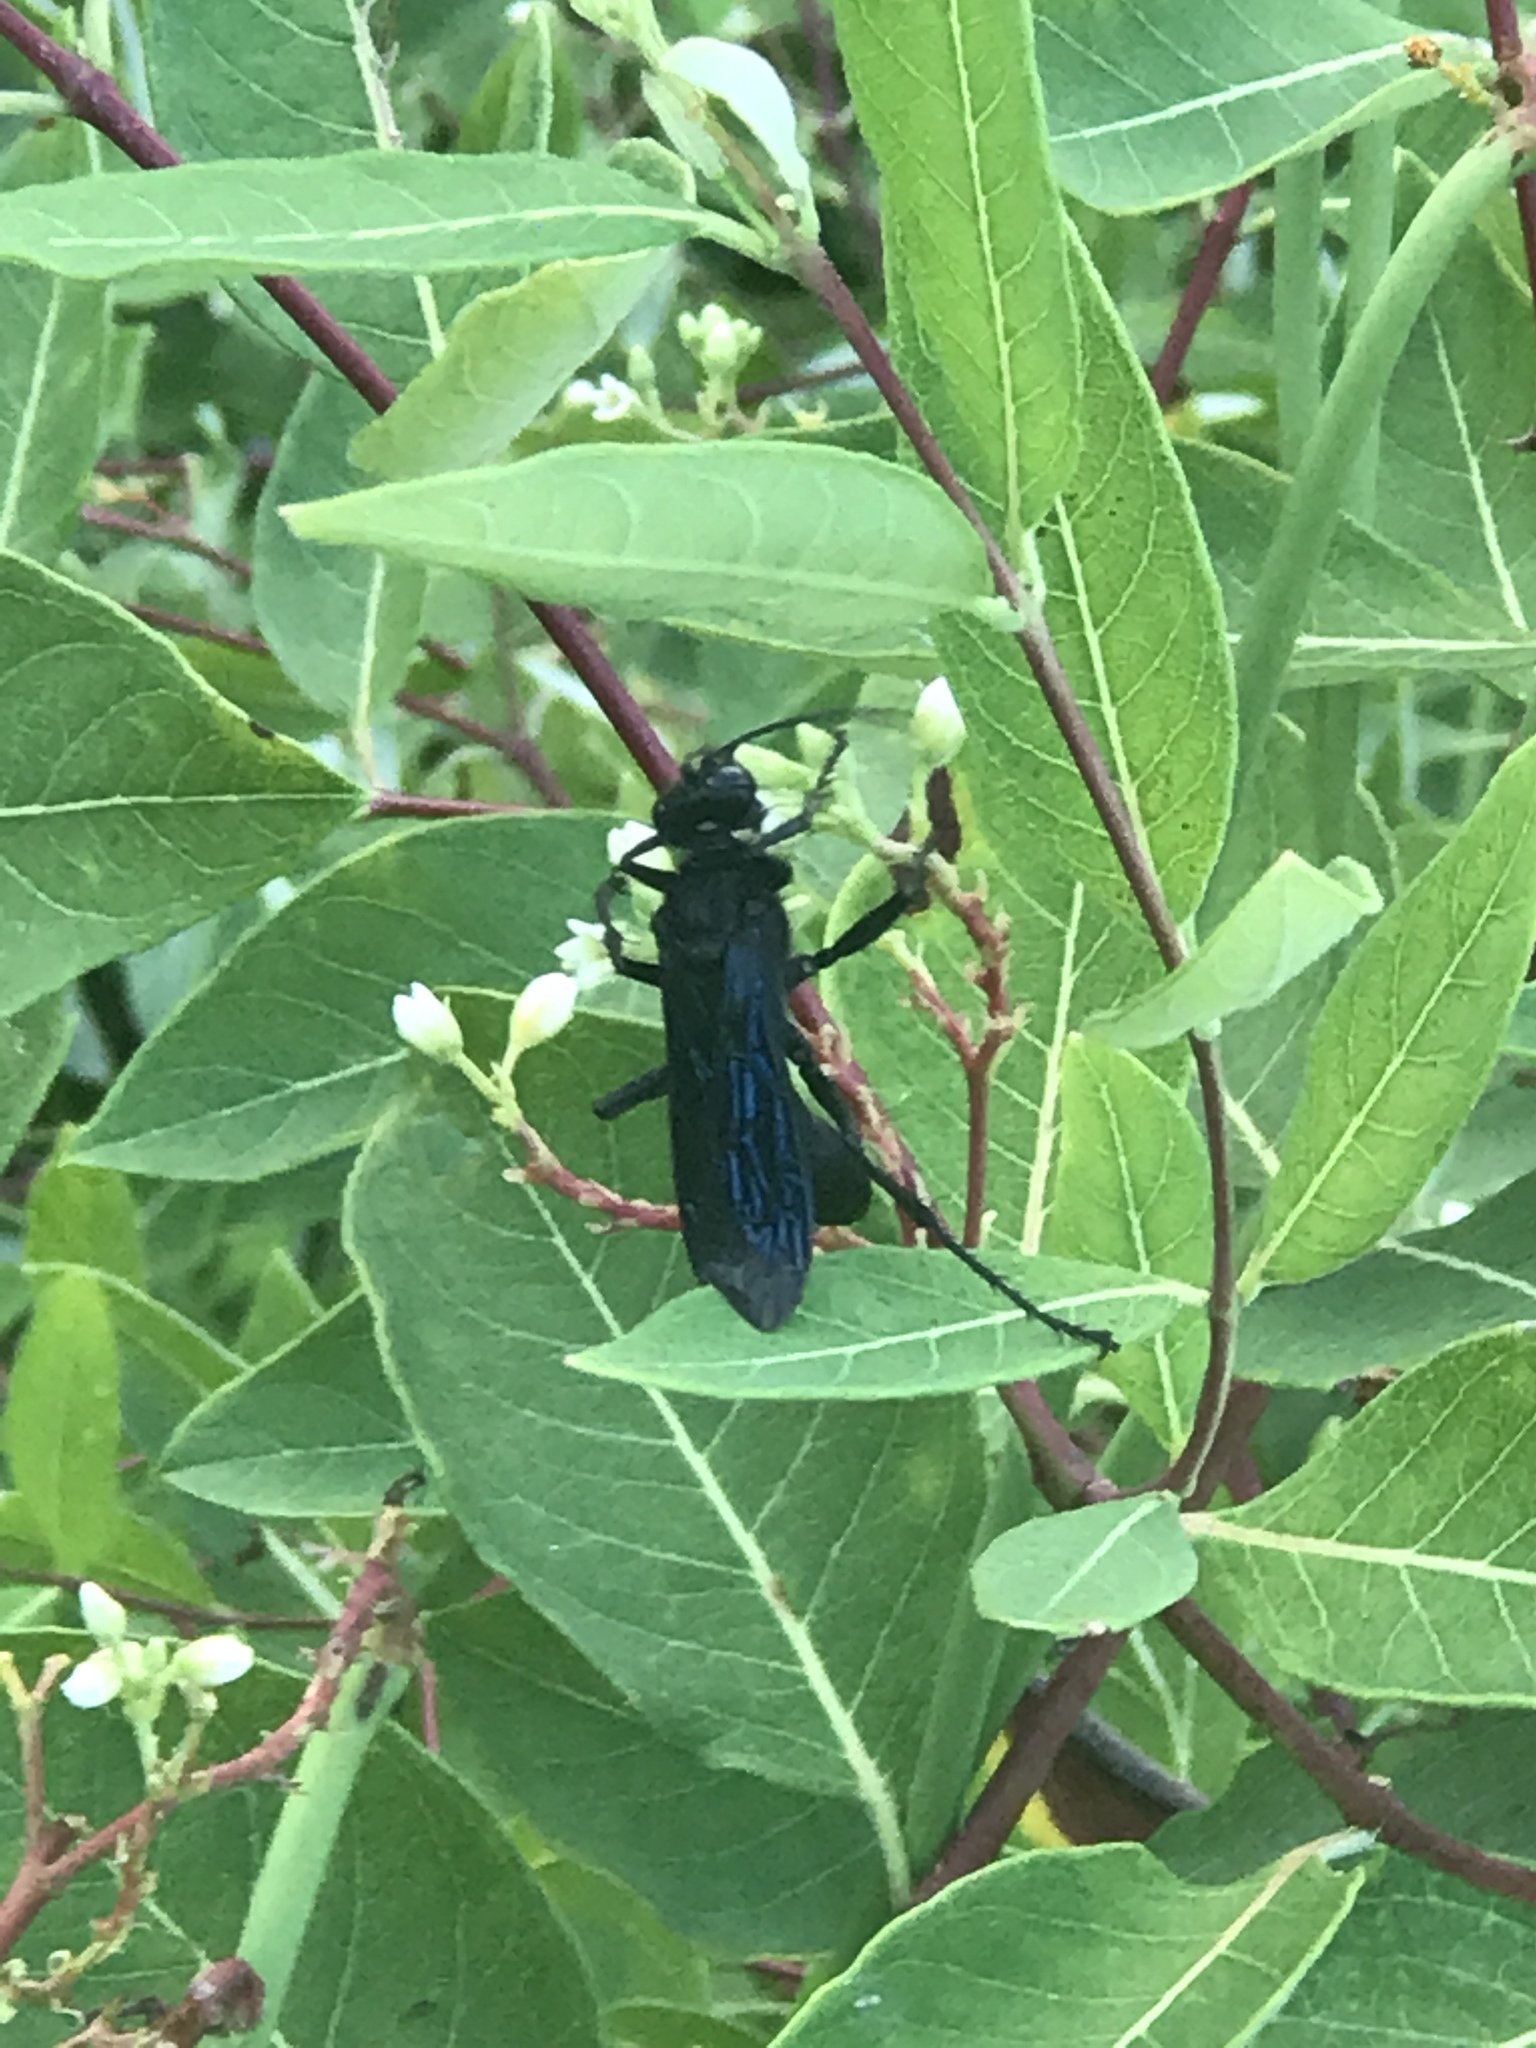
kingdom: Animalia
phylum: Arthropoda
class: Insecta
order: Hymenoptera
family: Sphecidae
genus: Sphex
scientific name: Sphex pensylvanicus
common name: Great black digger wasp
